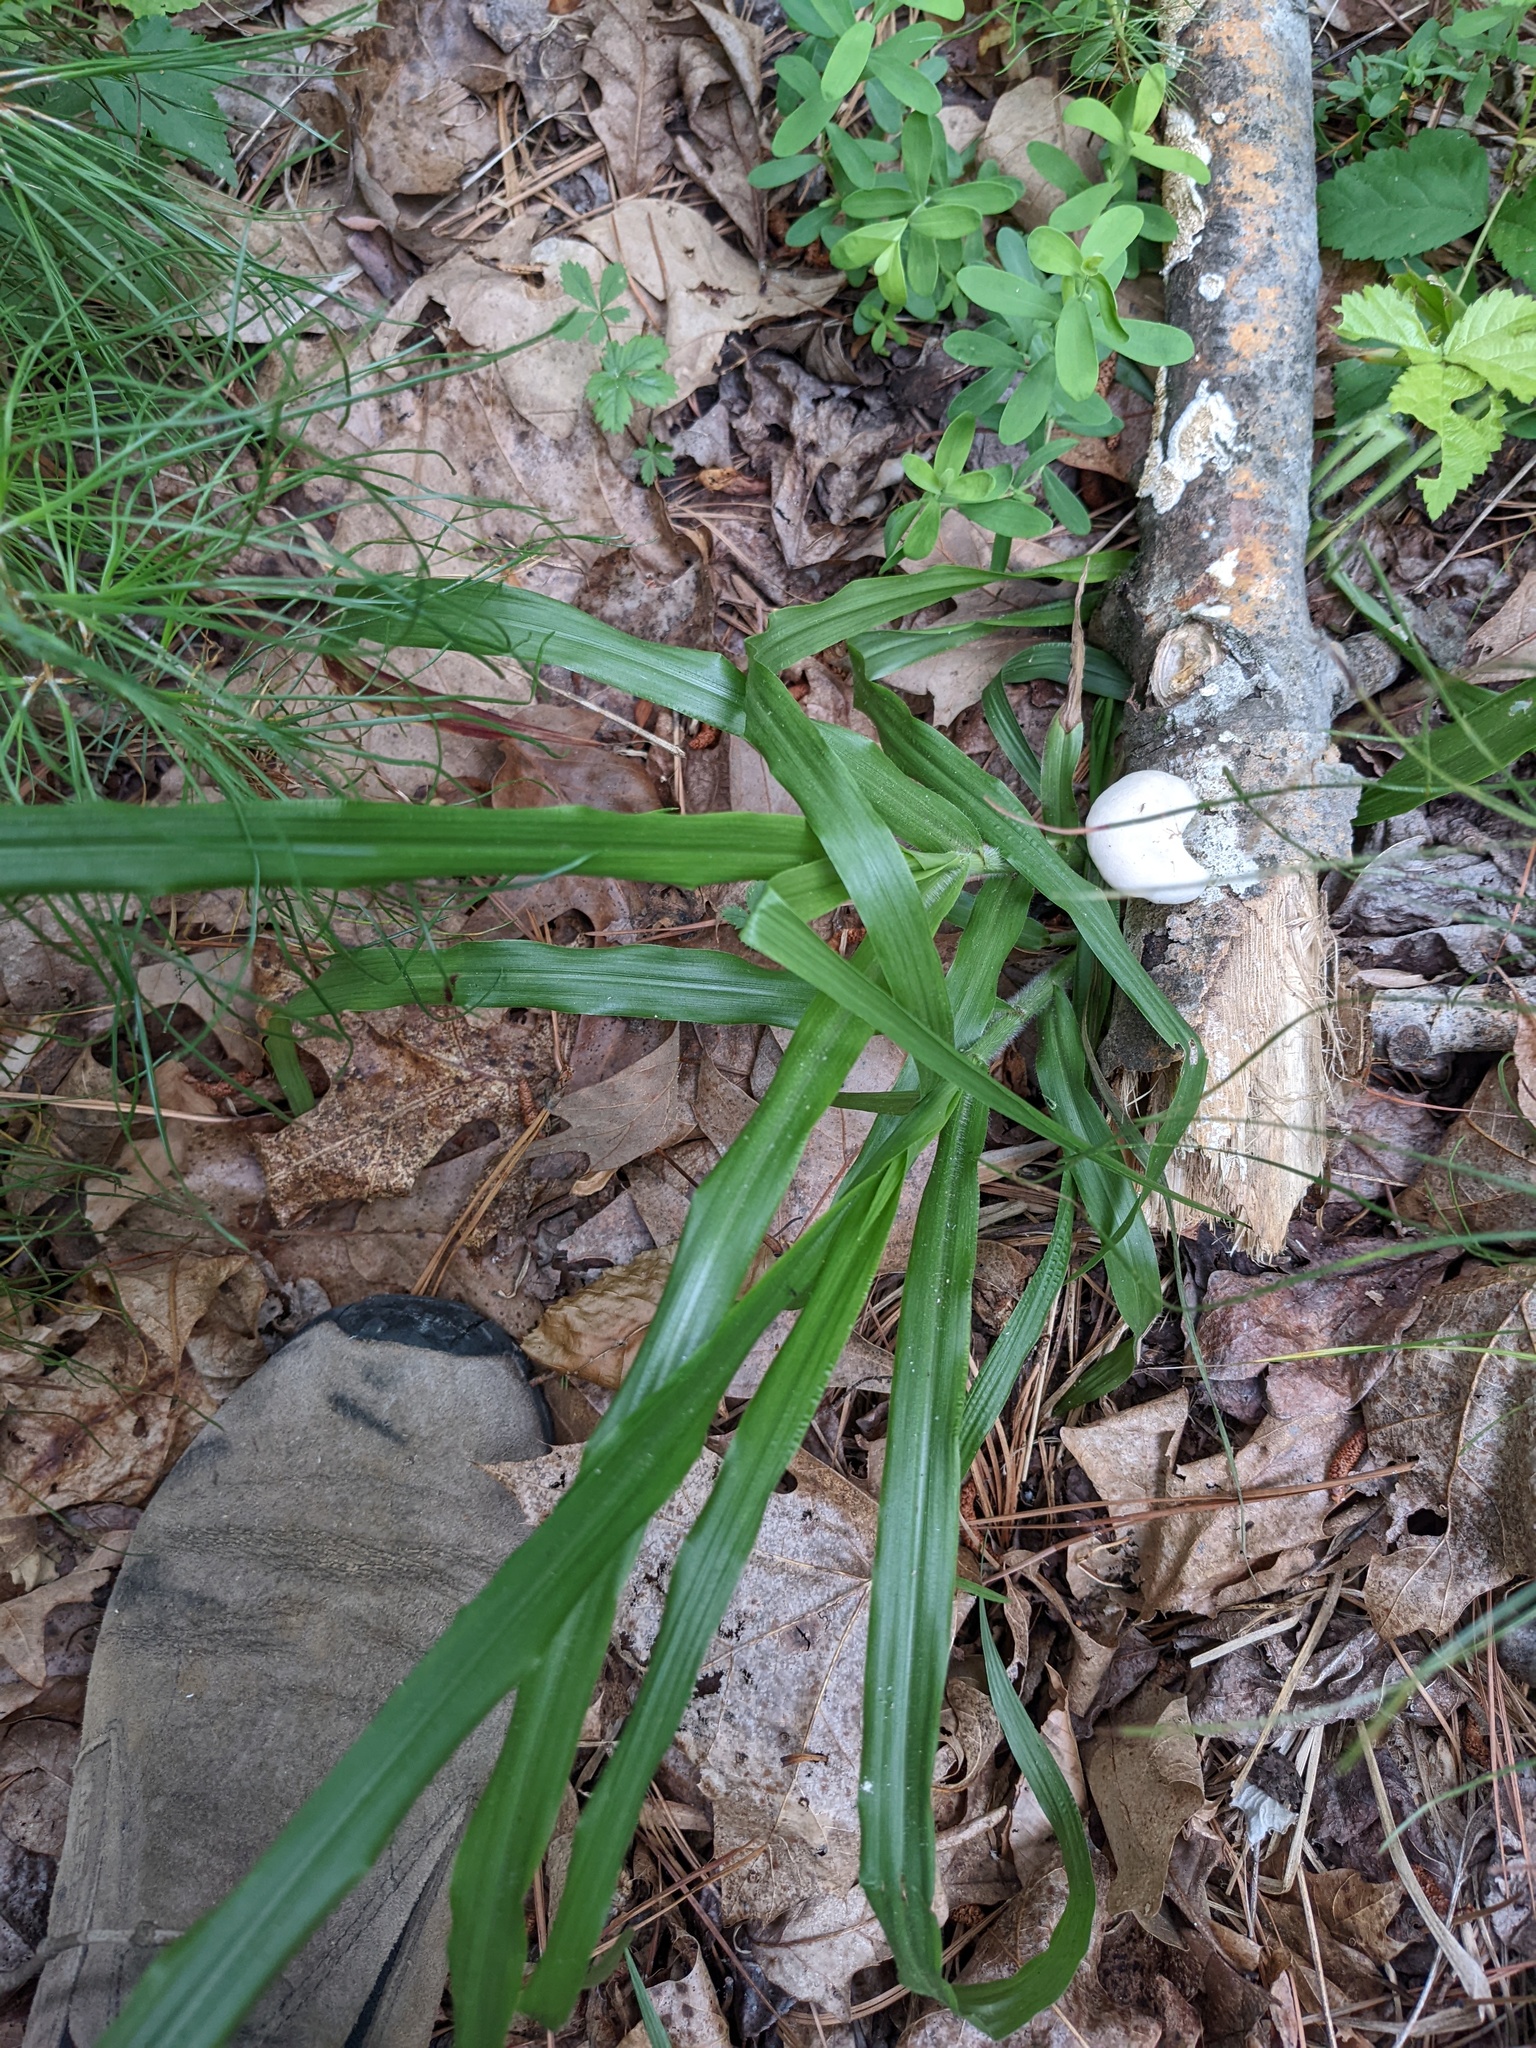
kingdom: Plantae
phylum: Tracheophyta
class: Liliopsida
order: Liliales
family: Melanthiaceae
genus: Stenanthium
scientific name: Stenanthium gramineum
